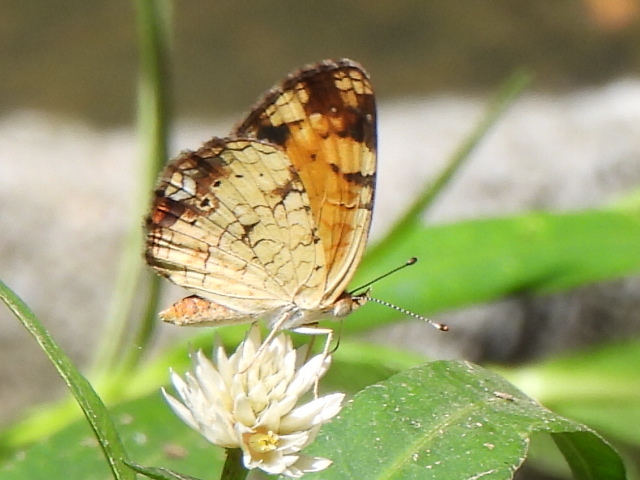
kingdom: Animalia
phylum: Arthropoda
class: Insecta
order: Lepidoptera
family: Nymphalidae
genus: Phyciodes
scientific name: Phyciodes tharos
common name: Pearl crescent
